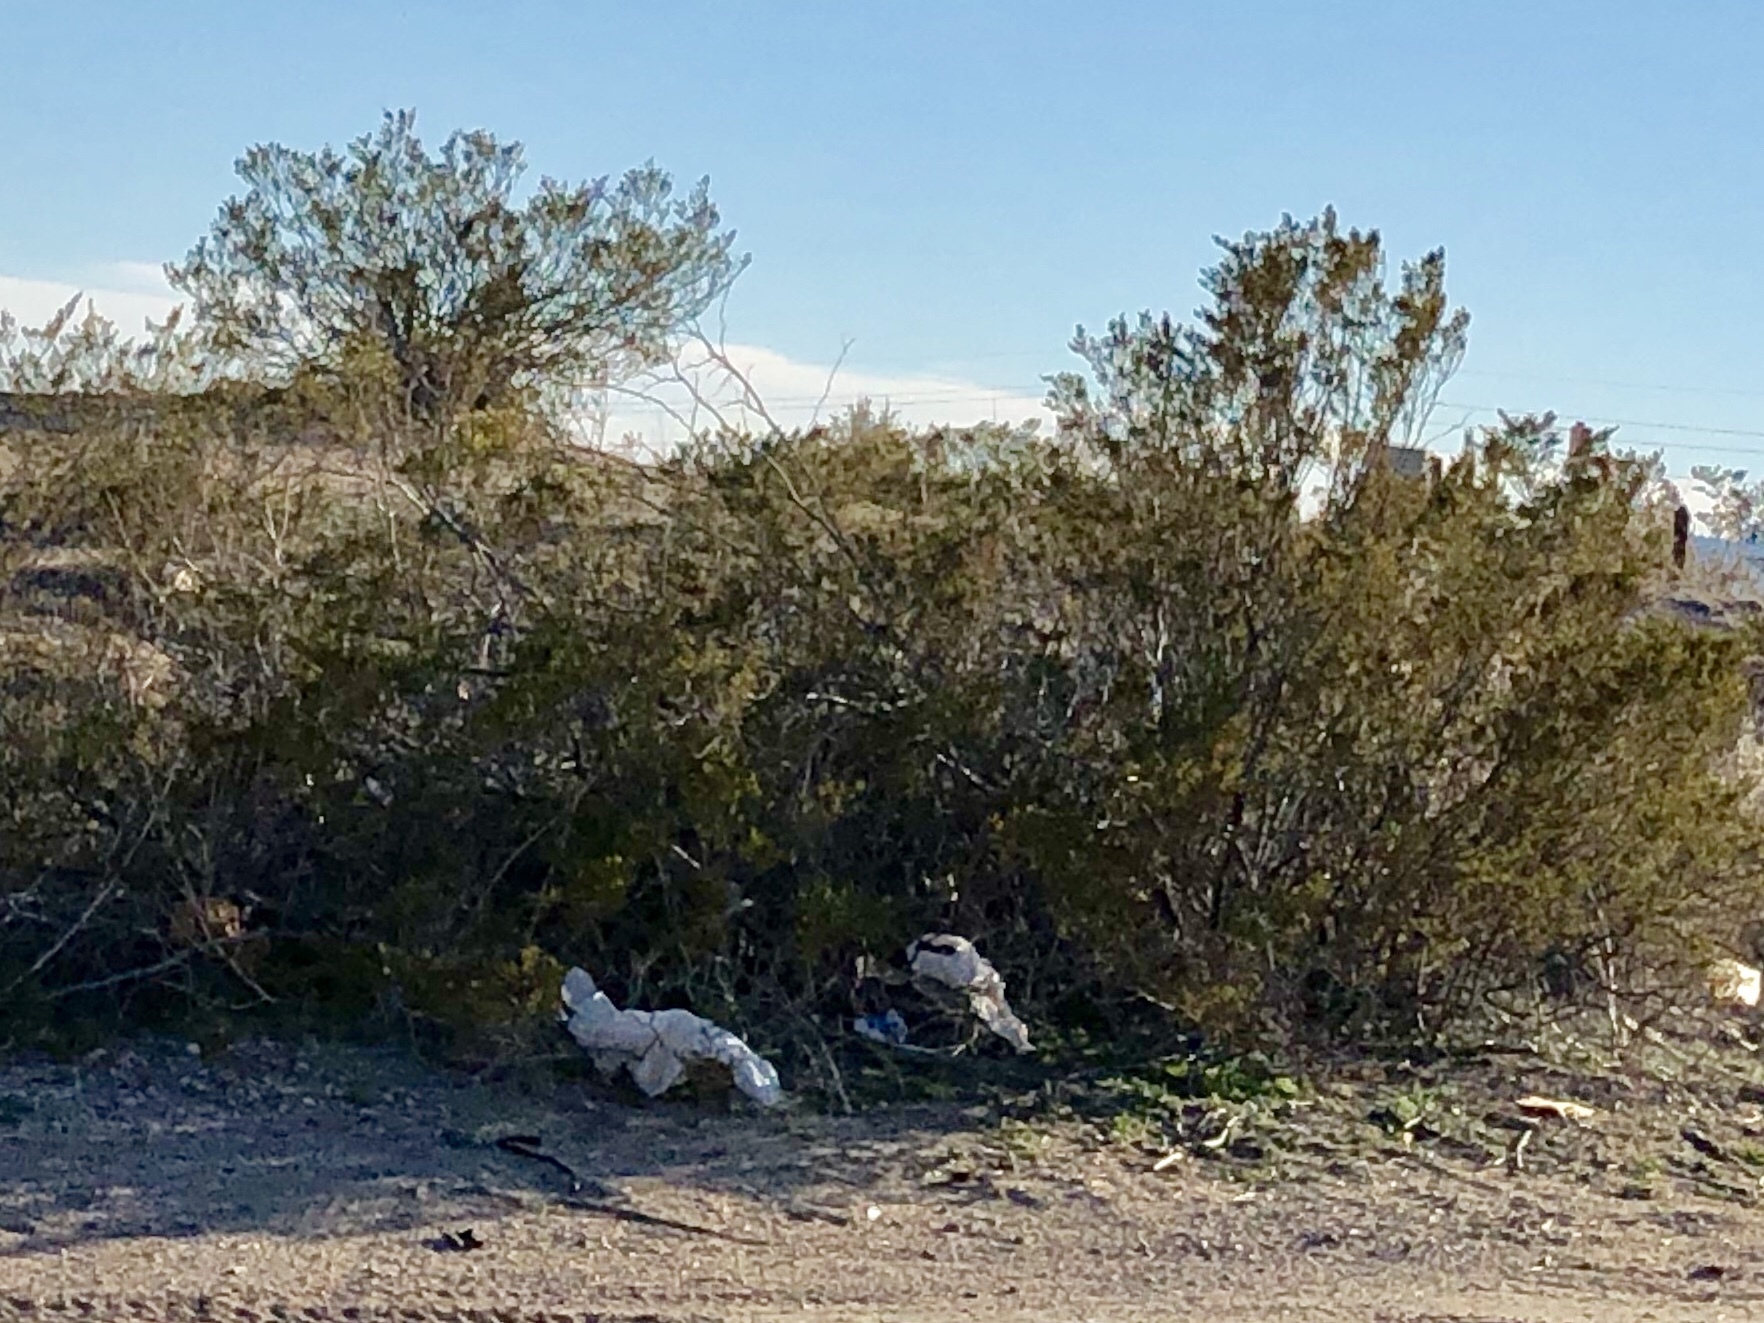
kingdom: Plantae
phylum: Tracheophyta
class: Magnoliopsida
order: Zygophyllales
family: Zygophyllaceae
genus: Larrea
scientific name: Larrea tridentata
